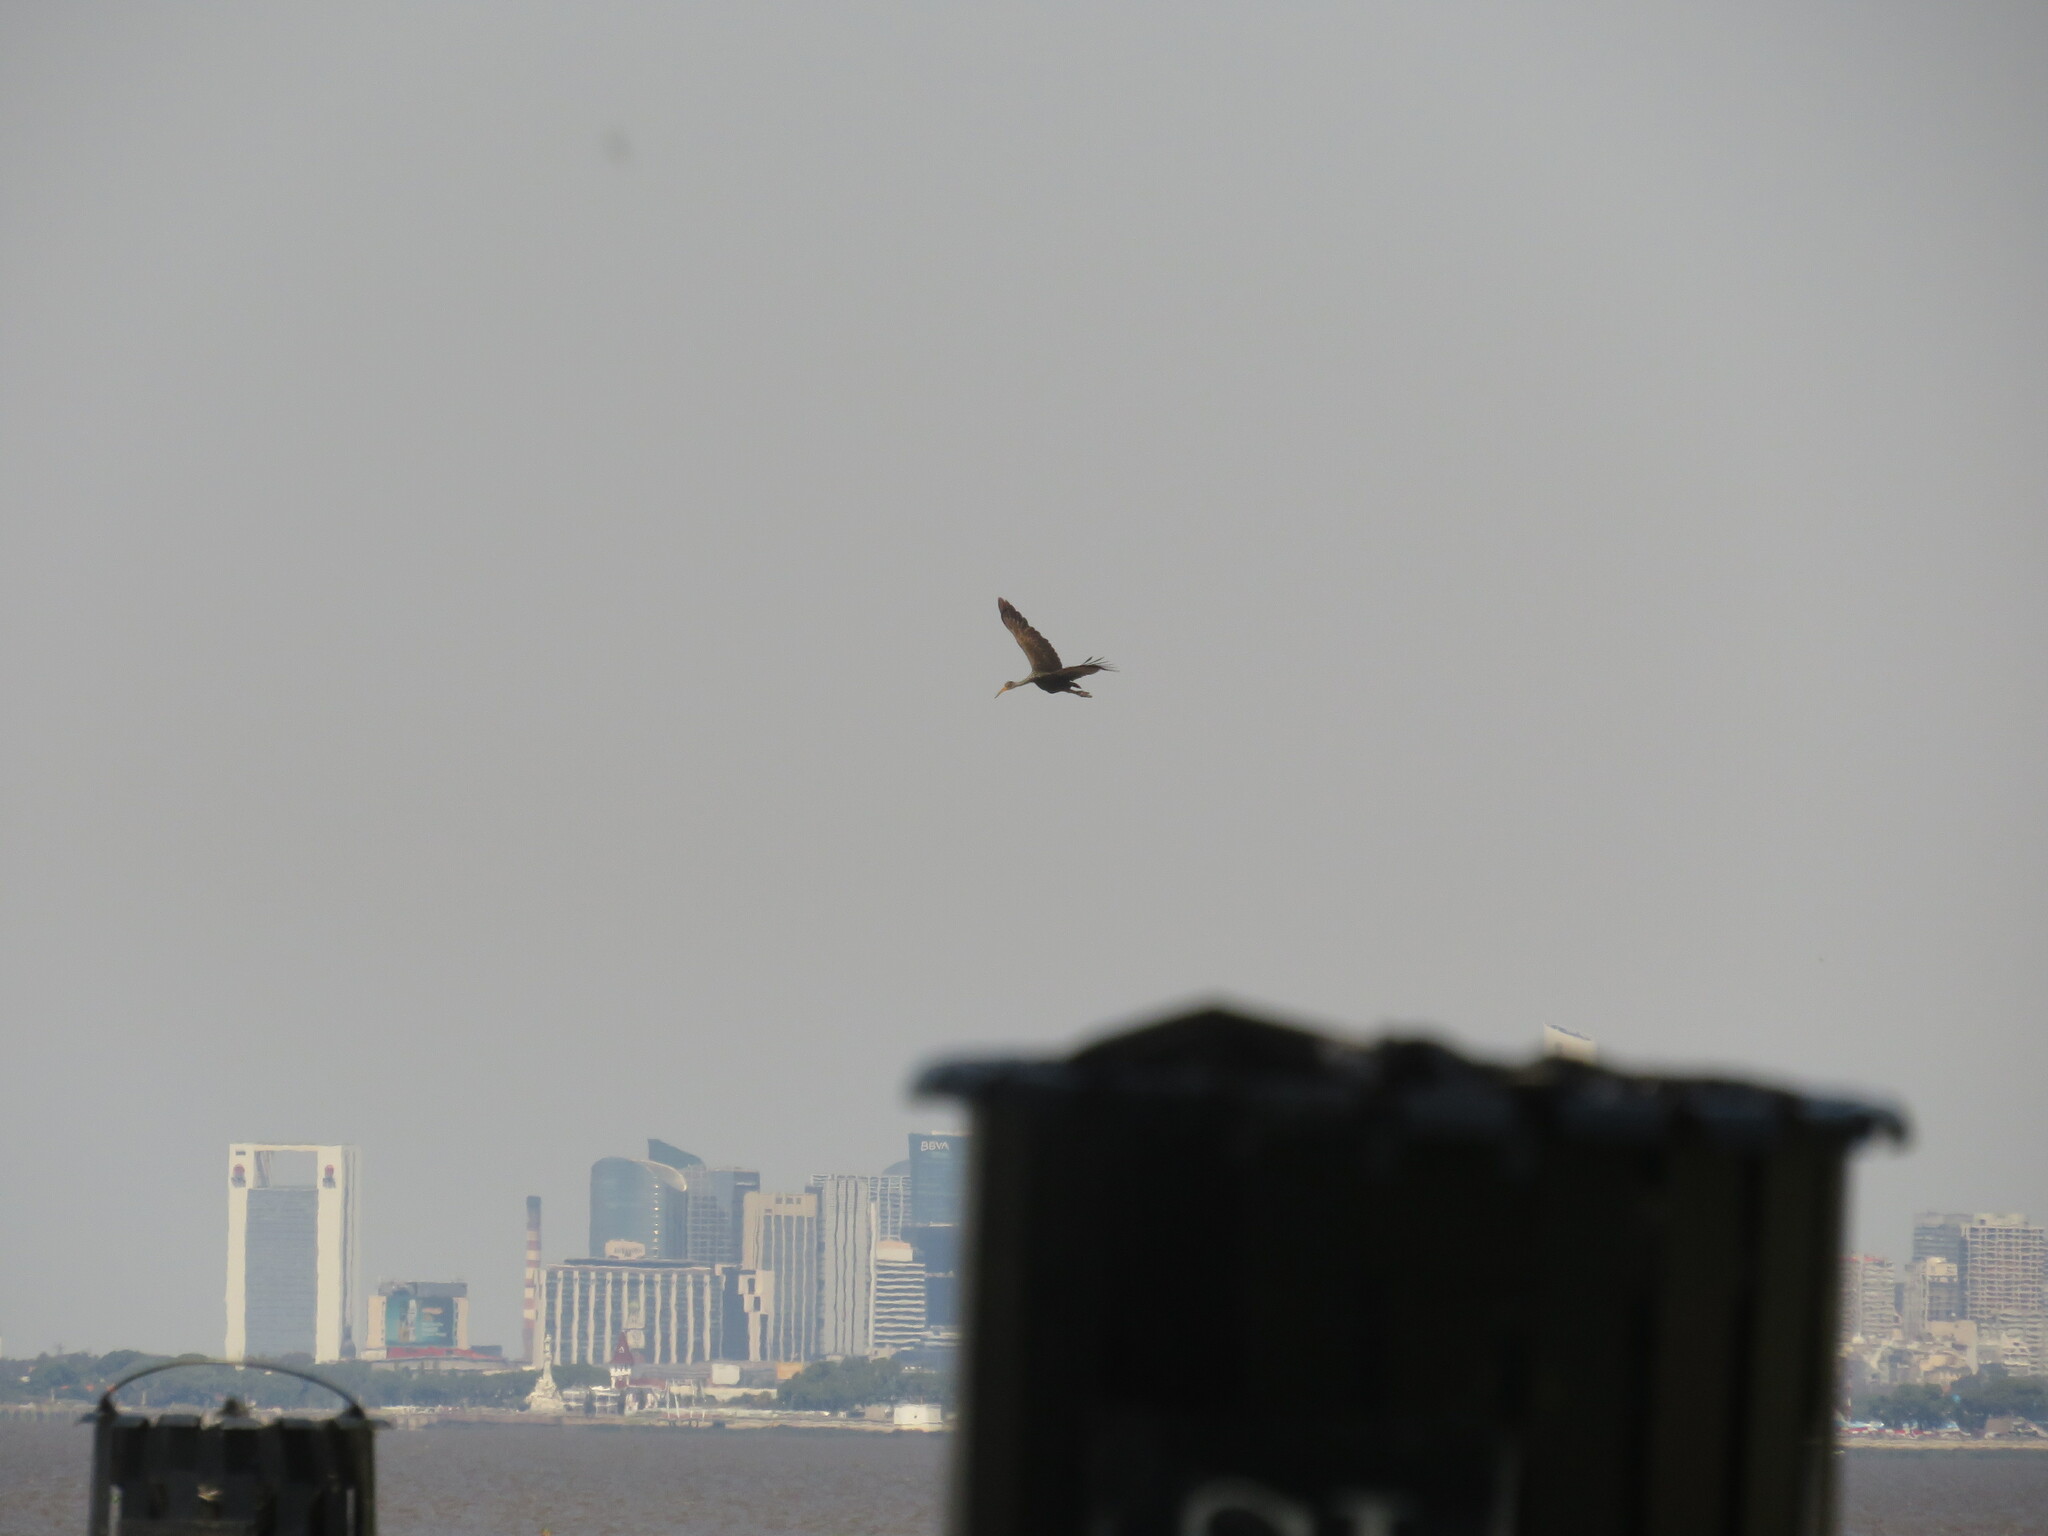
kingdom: Animalia
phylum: Chordata
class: Aves
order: Gruiformes
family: Aramidae
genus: Aramus
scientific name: Aramus guarauna
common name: Limpkin
